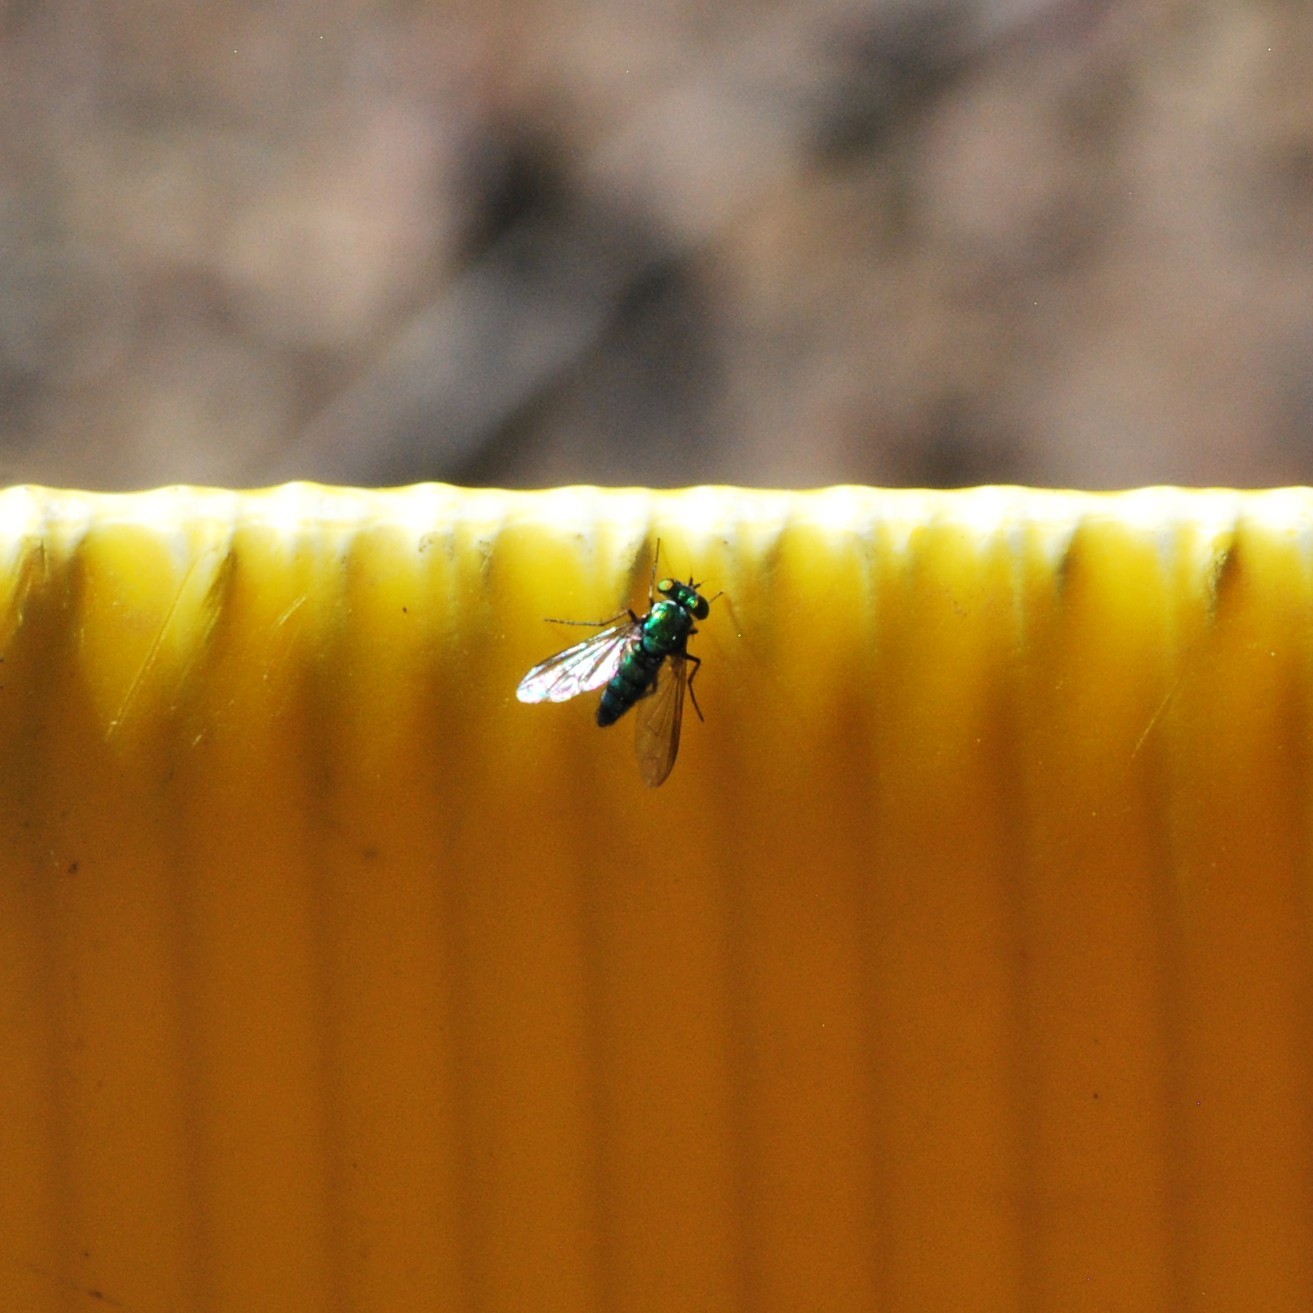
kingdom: Animalia
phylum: Arthropoda
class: Insecta
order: Diptera
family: Dolichopodidae
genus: Condylostylus
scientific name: Condylostylus longicornis
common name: Long-legged fly
